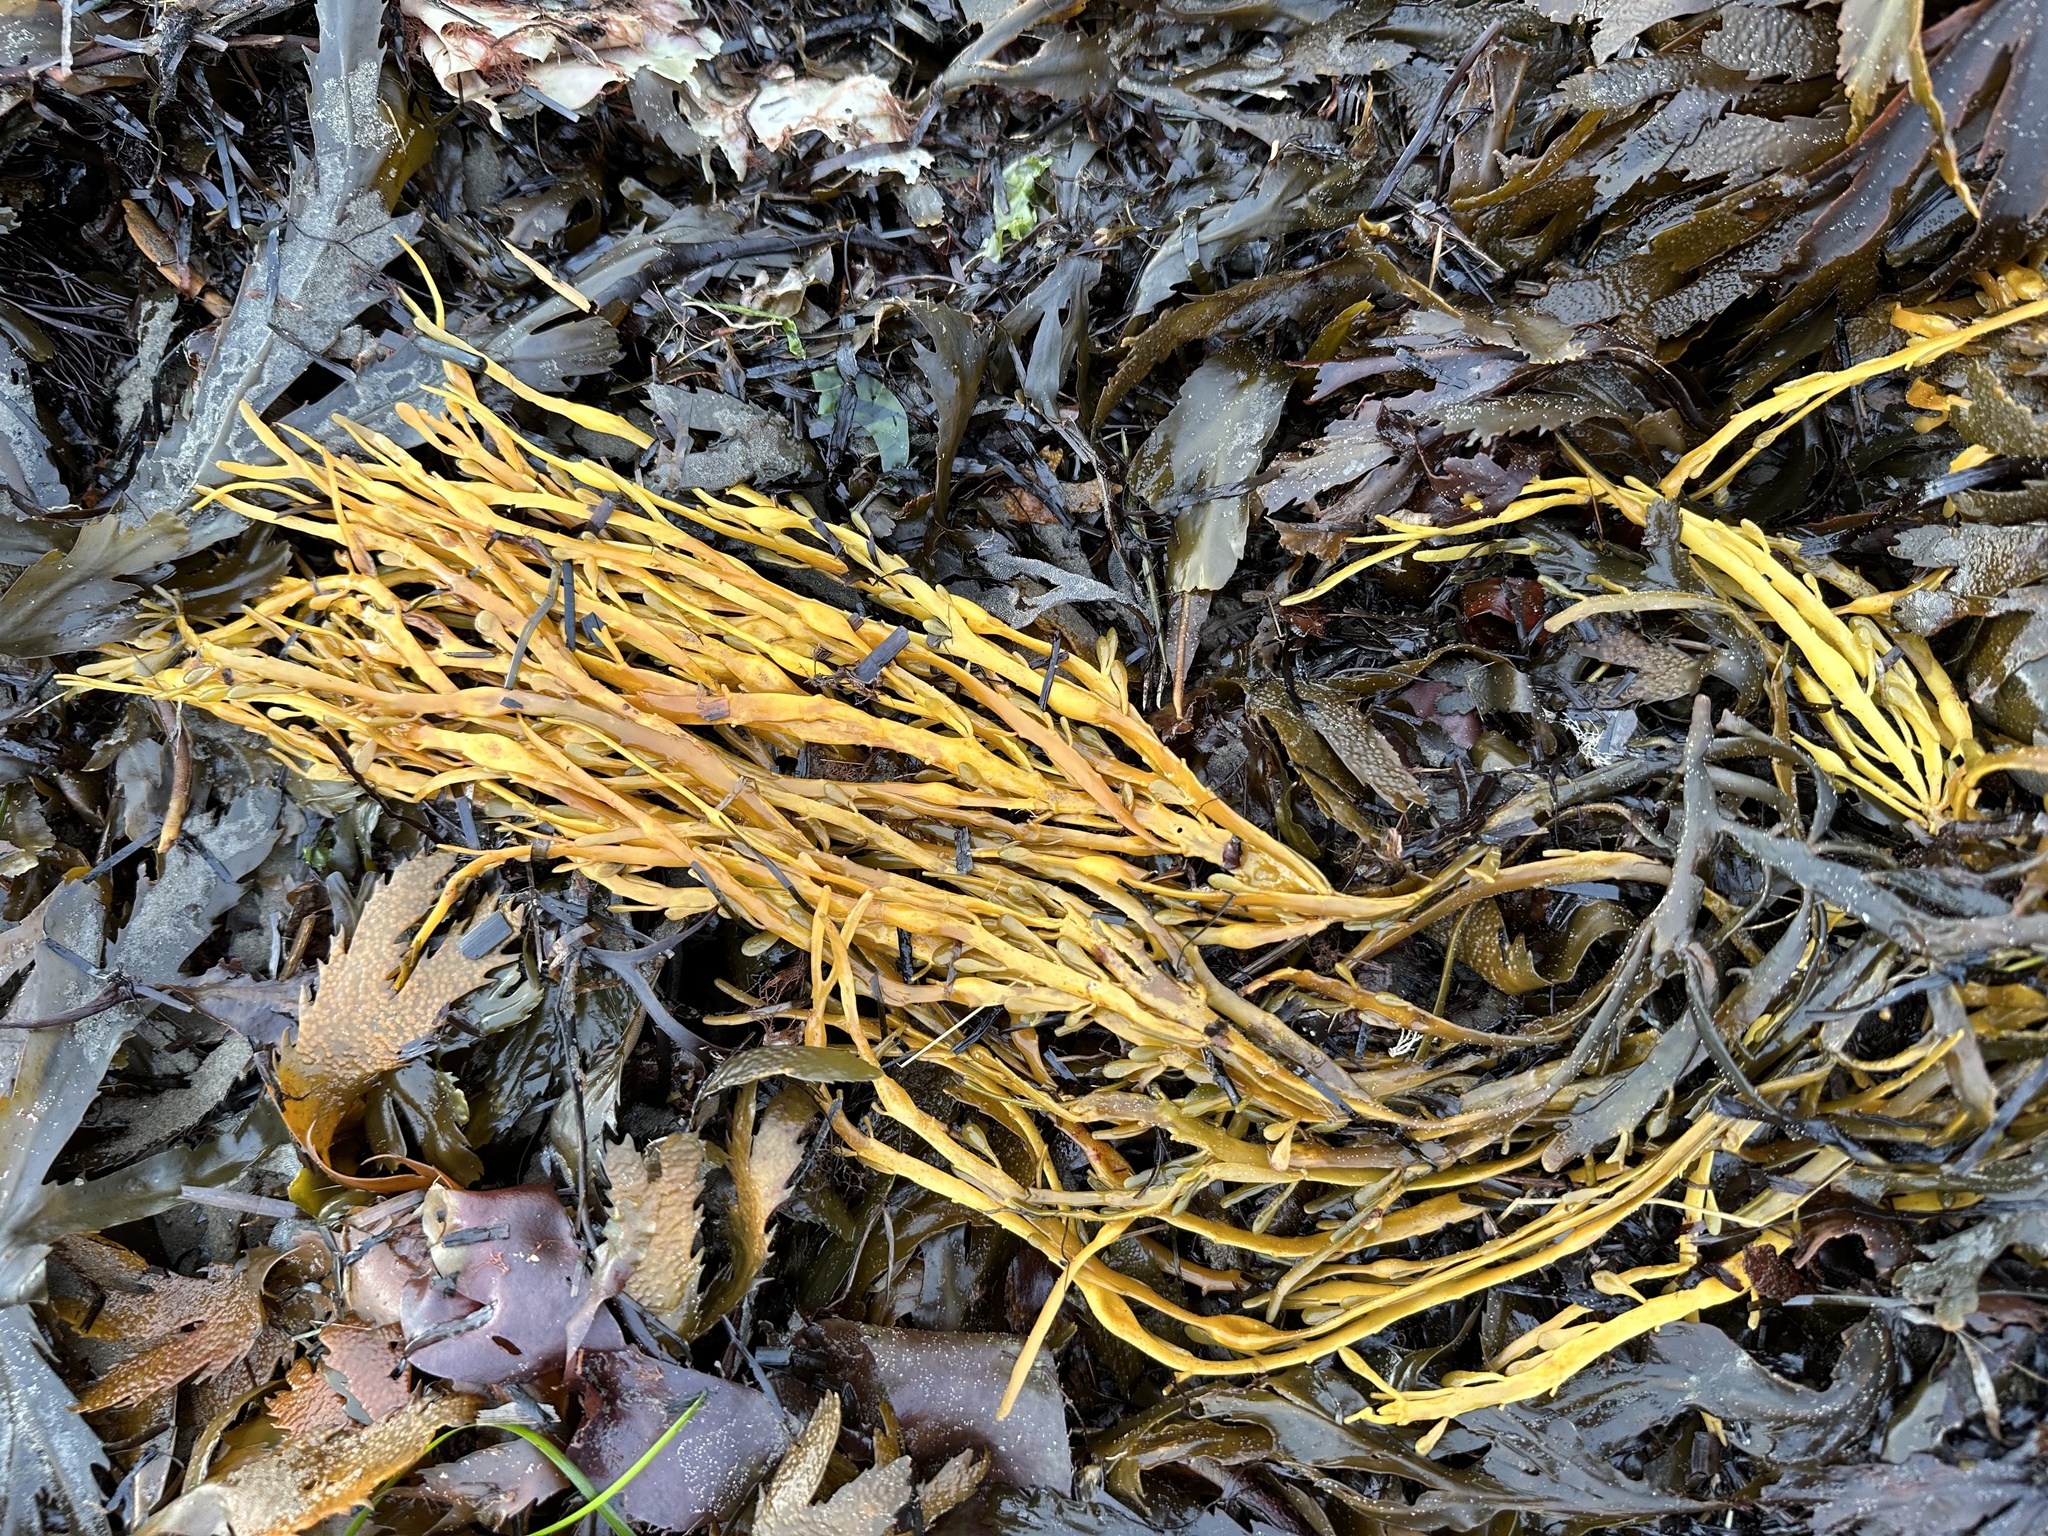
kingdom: Chromista
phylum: Ochrophyta
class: Phaeophyceae
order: Fucales
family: Fucaceae
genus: Ascophyllum
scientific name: Ascophyllum nodosum
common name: Knotted wrack
